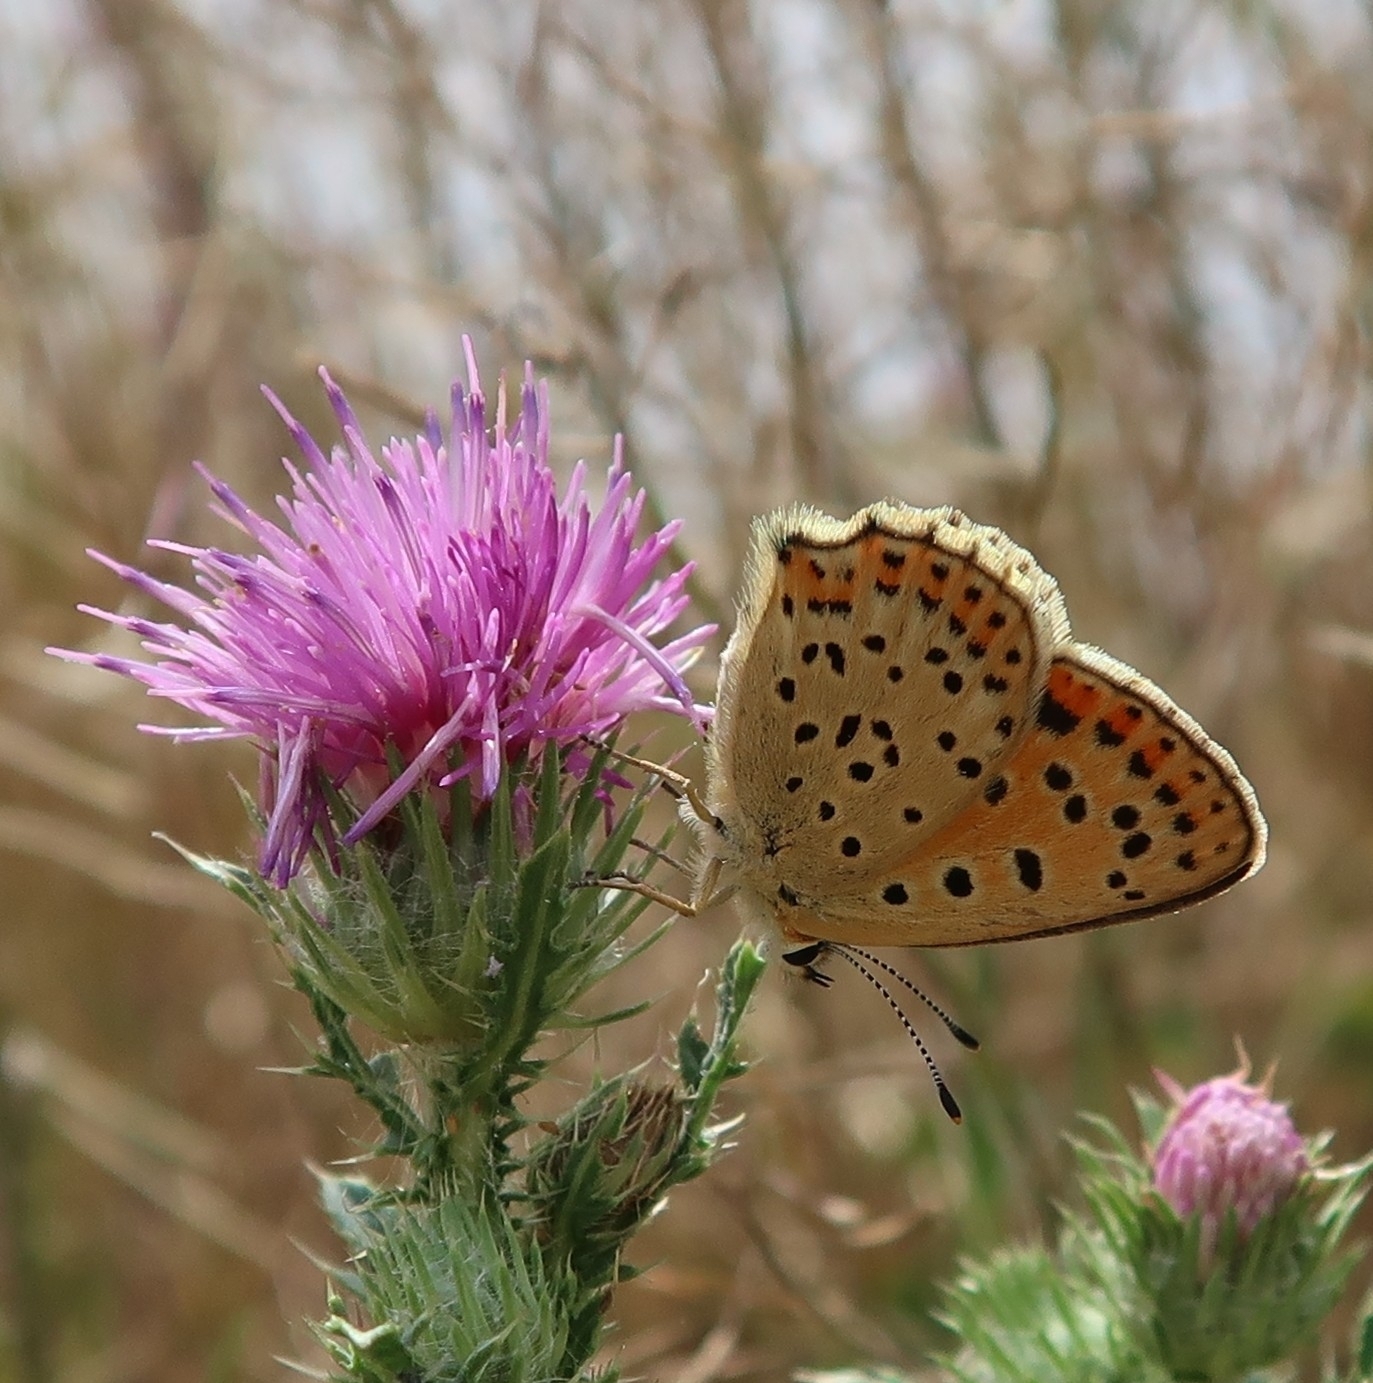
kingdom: Animalia
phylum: Arthropoda
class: Insecta
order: Lepidoptera
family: Lycaenidae
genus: Loweia
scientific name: Loweia tityrus
